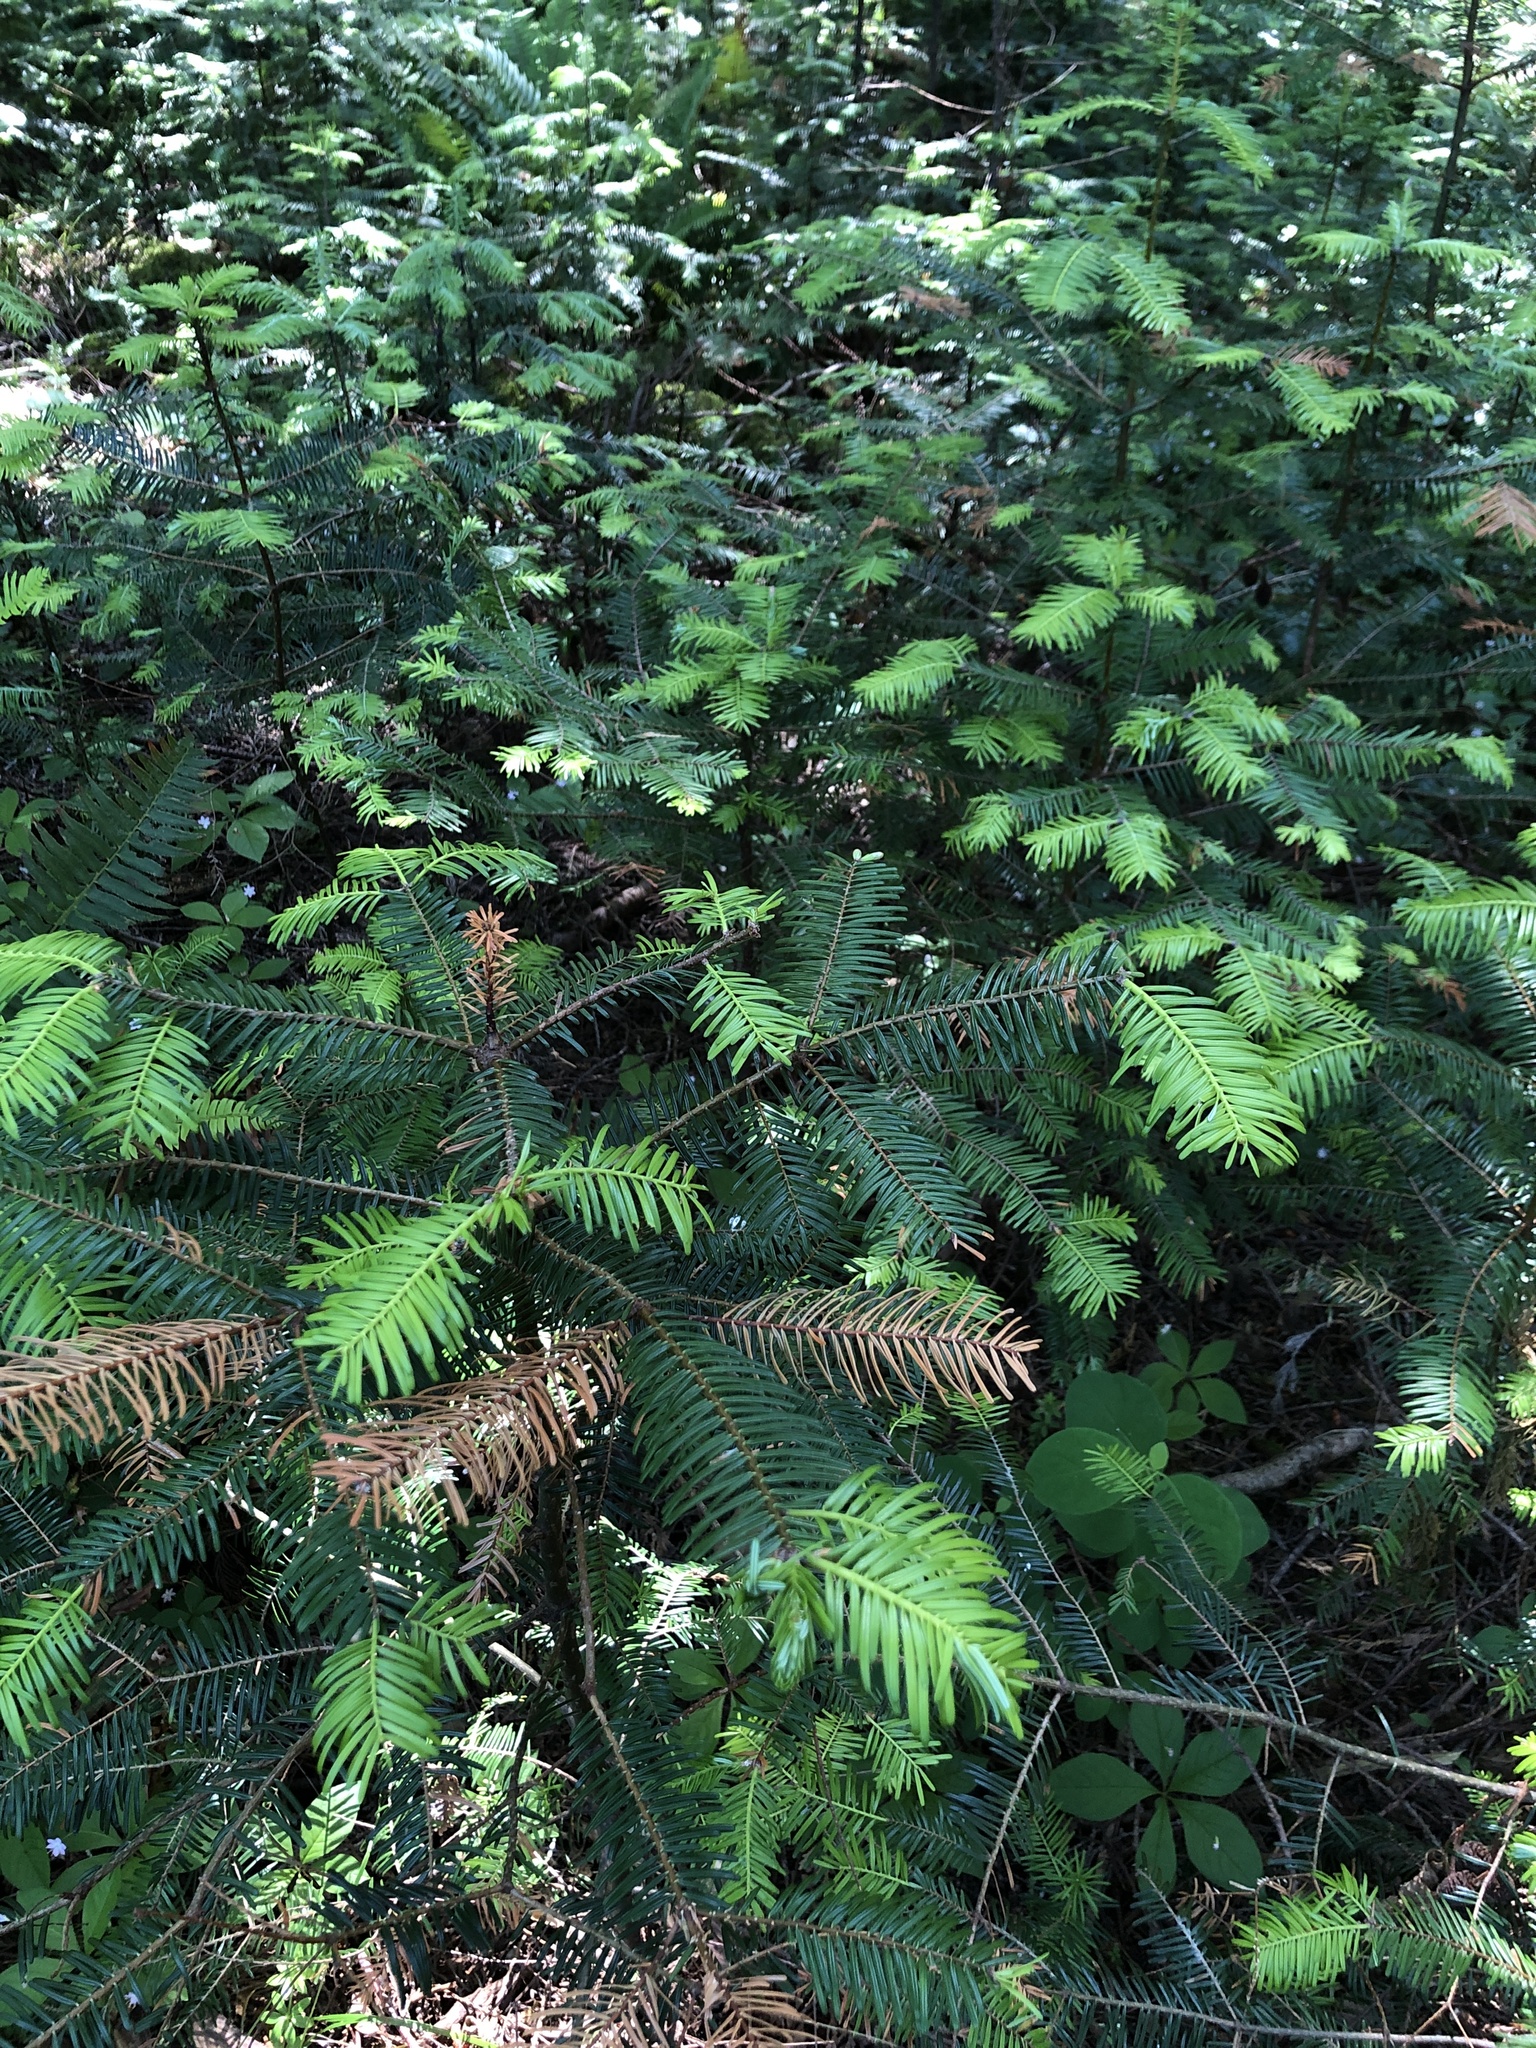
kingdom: Plantae
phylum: Tracheophyta
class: Pinopsida
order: Pinales
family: Pinaceae
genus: Abies
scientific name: Abies grandis
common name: Giant fir
